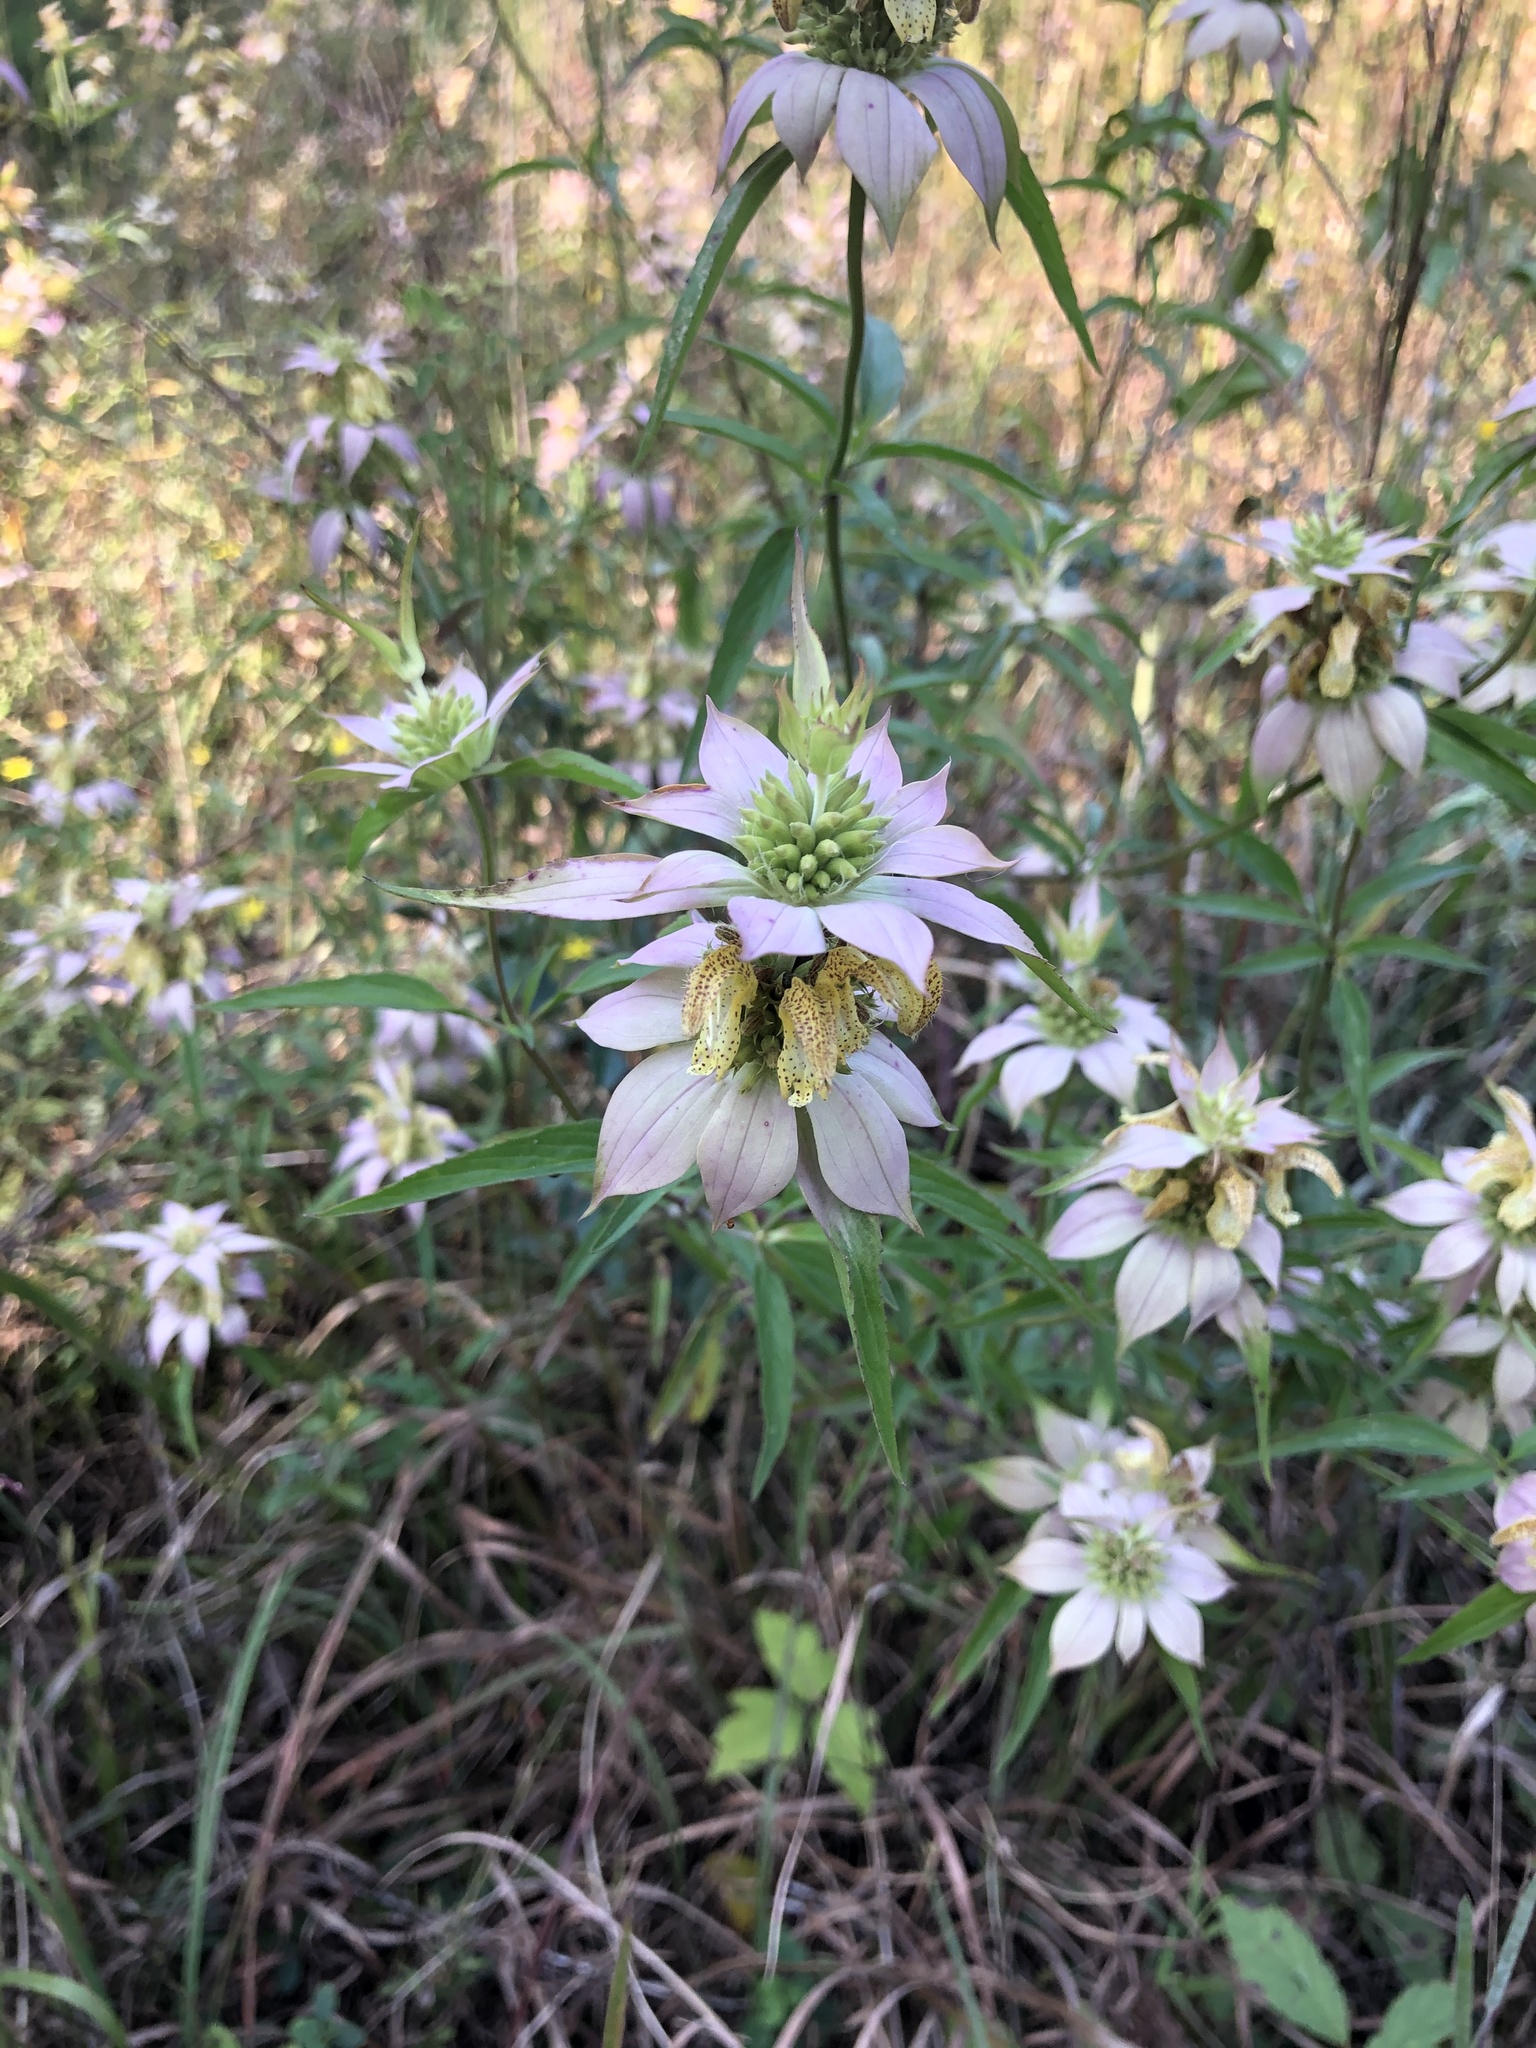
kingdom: Plantae
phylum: Tracheophyta
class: Magnoliopsida
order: Lamiales
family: Lamiaceae
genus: Monarda
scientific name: Monarda punctata
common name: Dotted monarda
